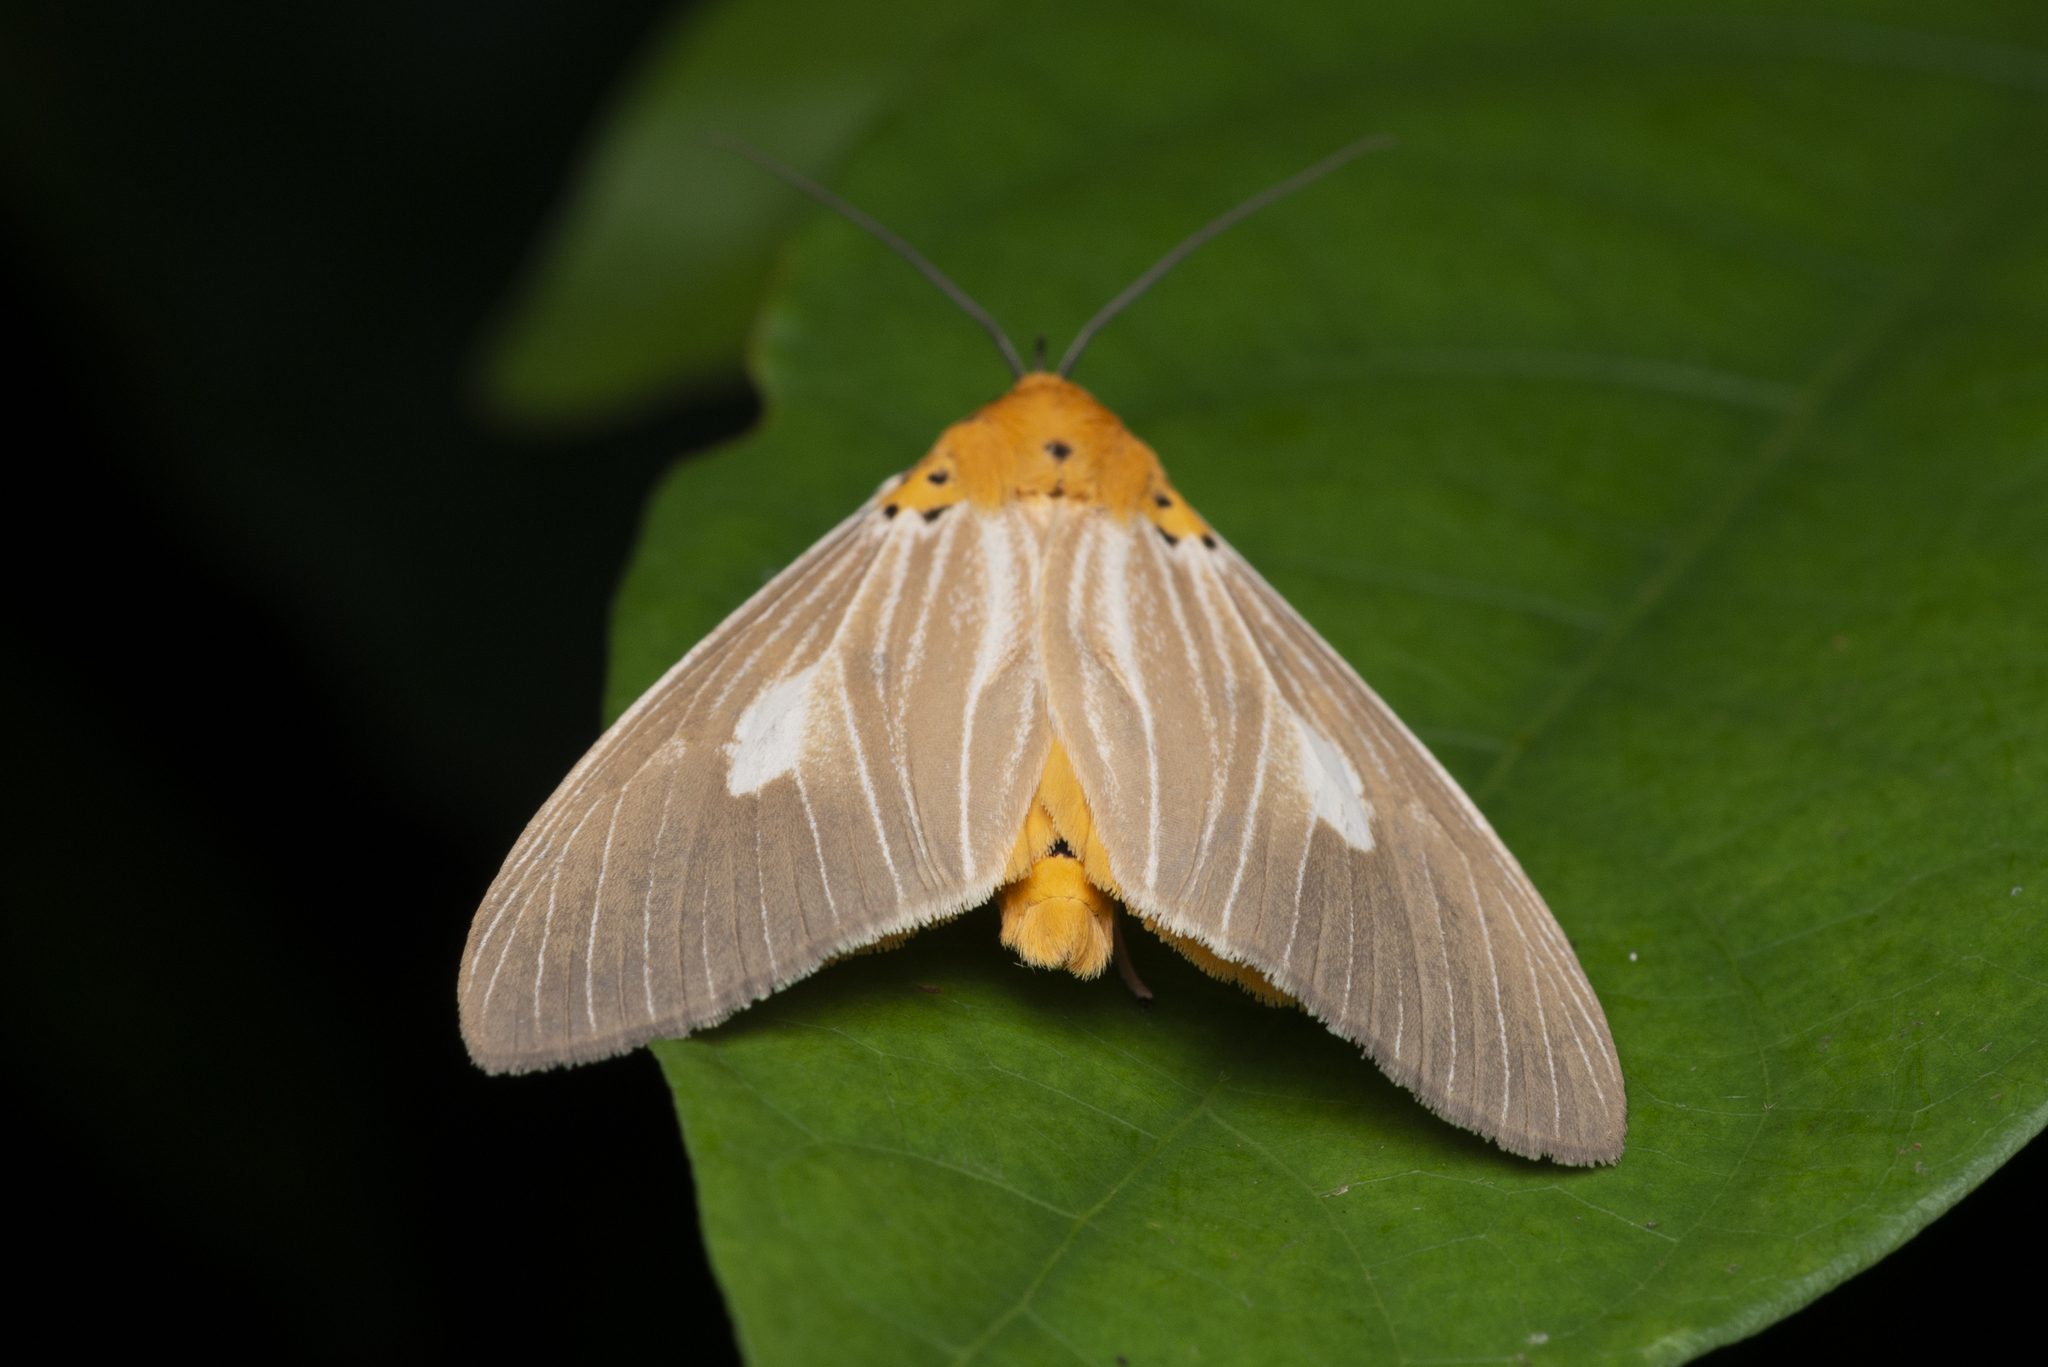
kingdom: Animalia
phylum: Arthropoda
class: Insecta
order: Lepidoptera
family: Erebidae
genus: Asota
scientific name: Asota plaginota
